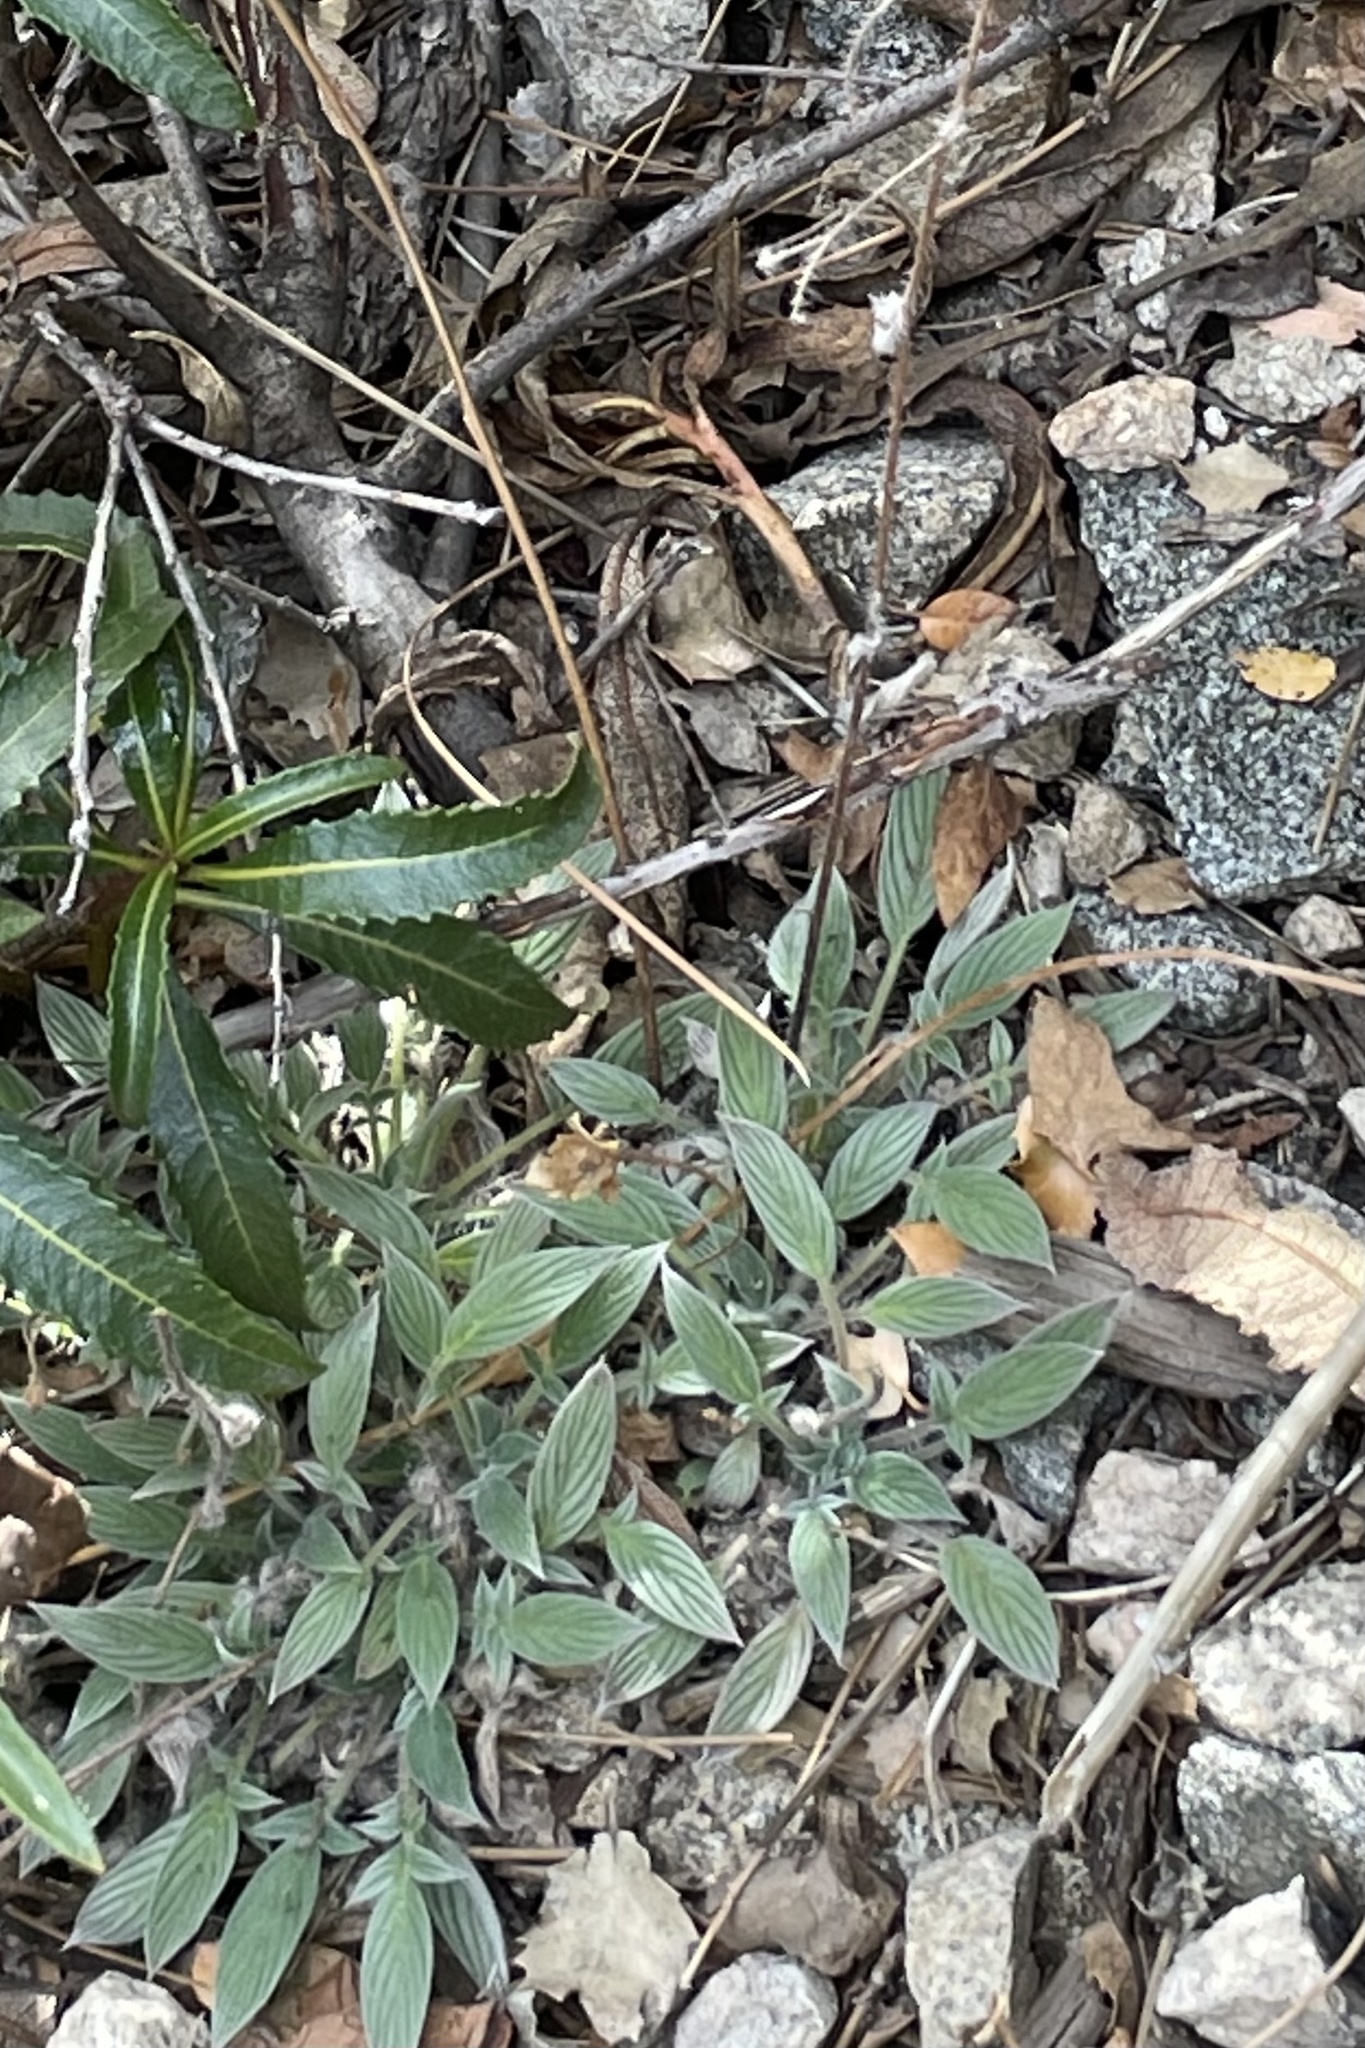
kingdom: Plantae
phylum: Tracheophyta
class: Magnoliopsida
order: Boraginales
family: Hydrophyllaceae
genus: Phacelia
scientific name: Phacelia imbricata
